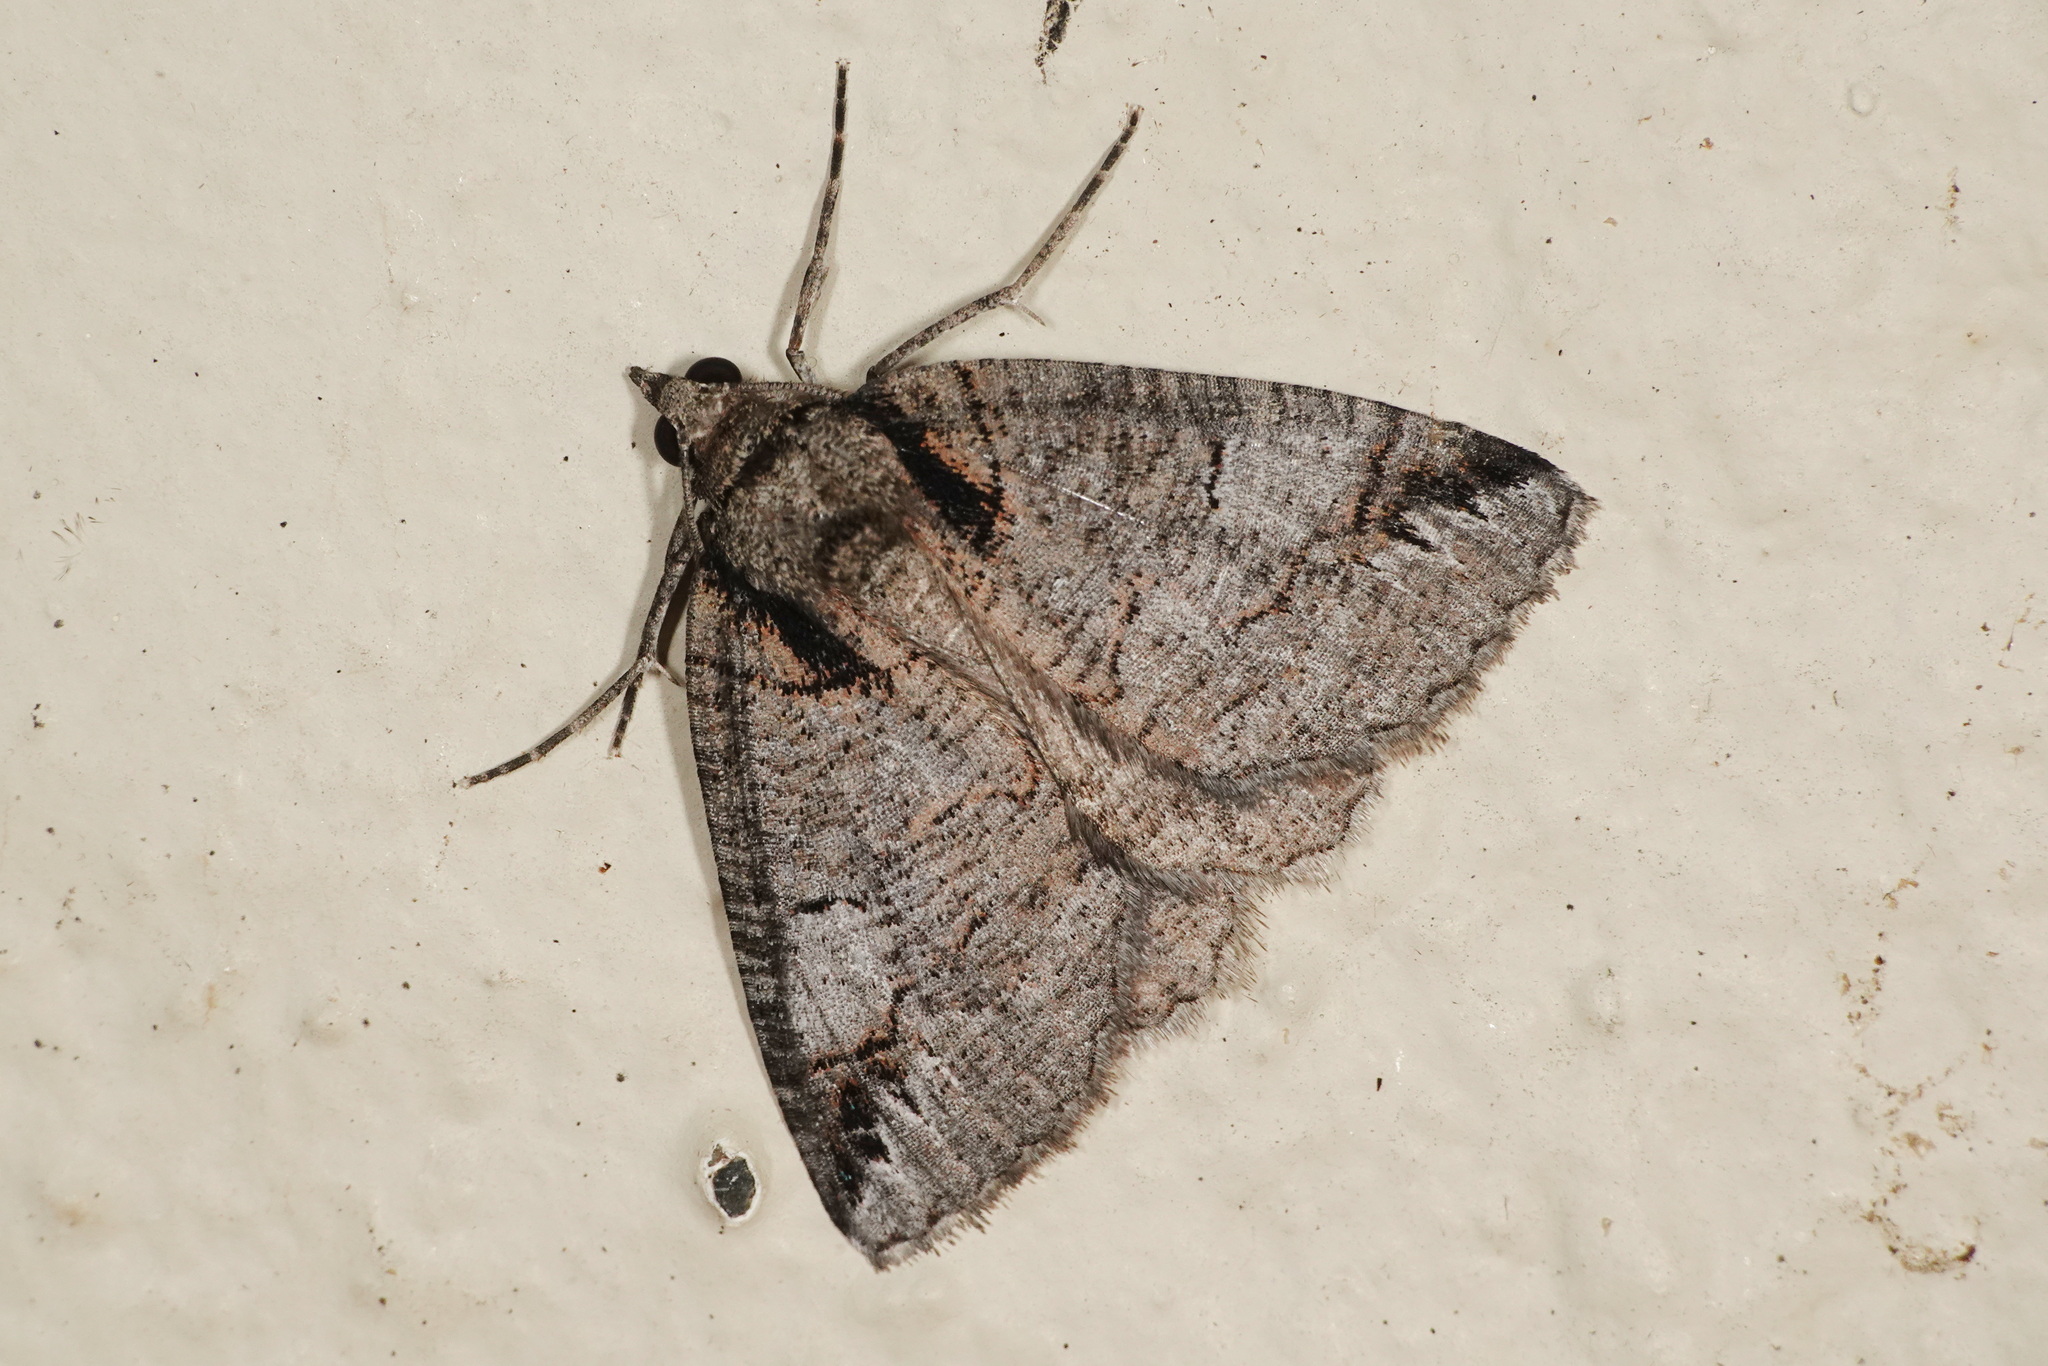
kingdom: Animalia
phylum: Arthropoda
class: Insecta
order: Lepidoptera
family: Geometridae
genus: Austroterpna
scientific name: Austroterpna paratorna
